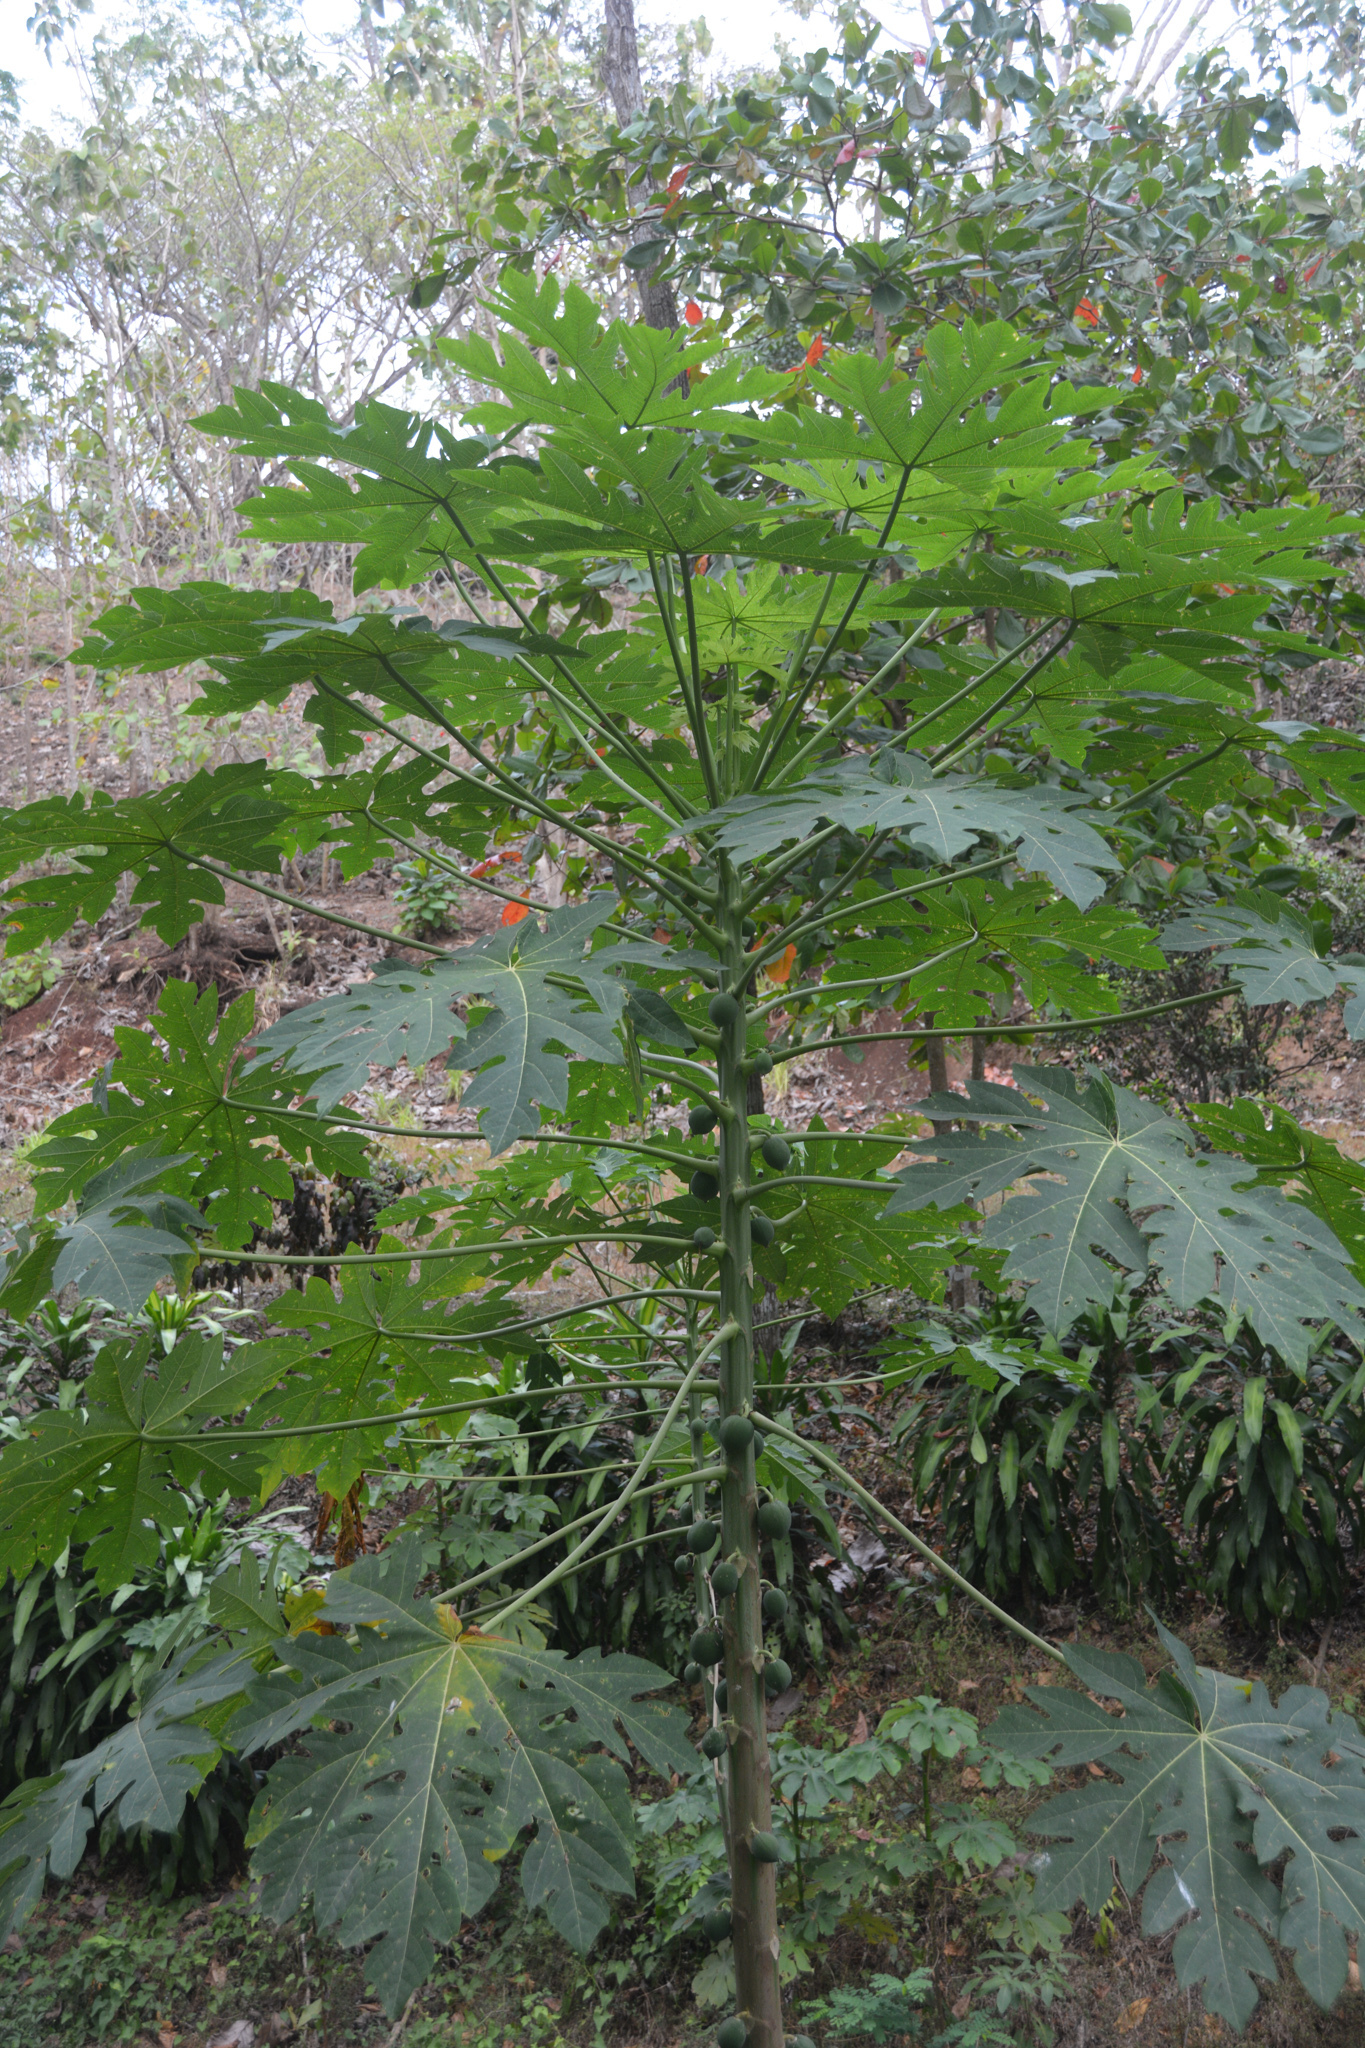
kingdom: Plantae
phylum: Tracheophyta
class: Magnoliopsida
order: Brassicales
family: Caricaceae
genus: Carica
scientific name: Carica papaya
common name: Papaya
